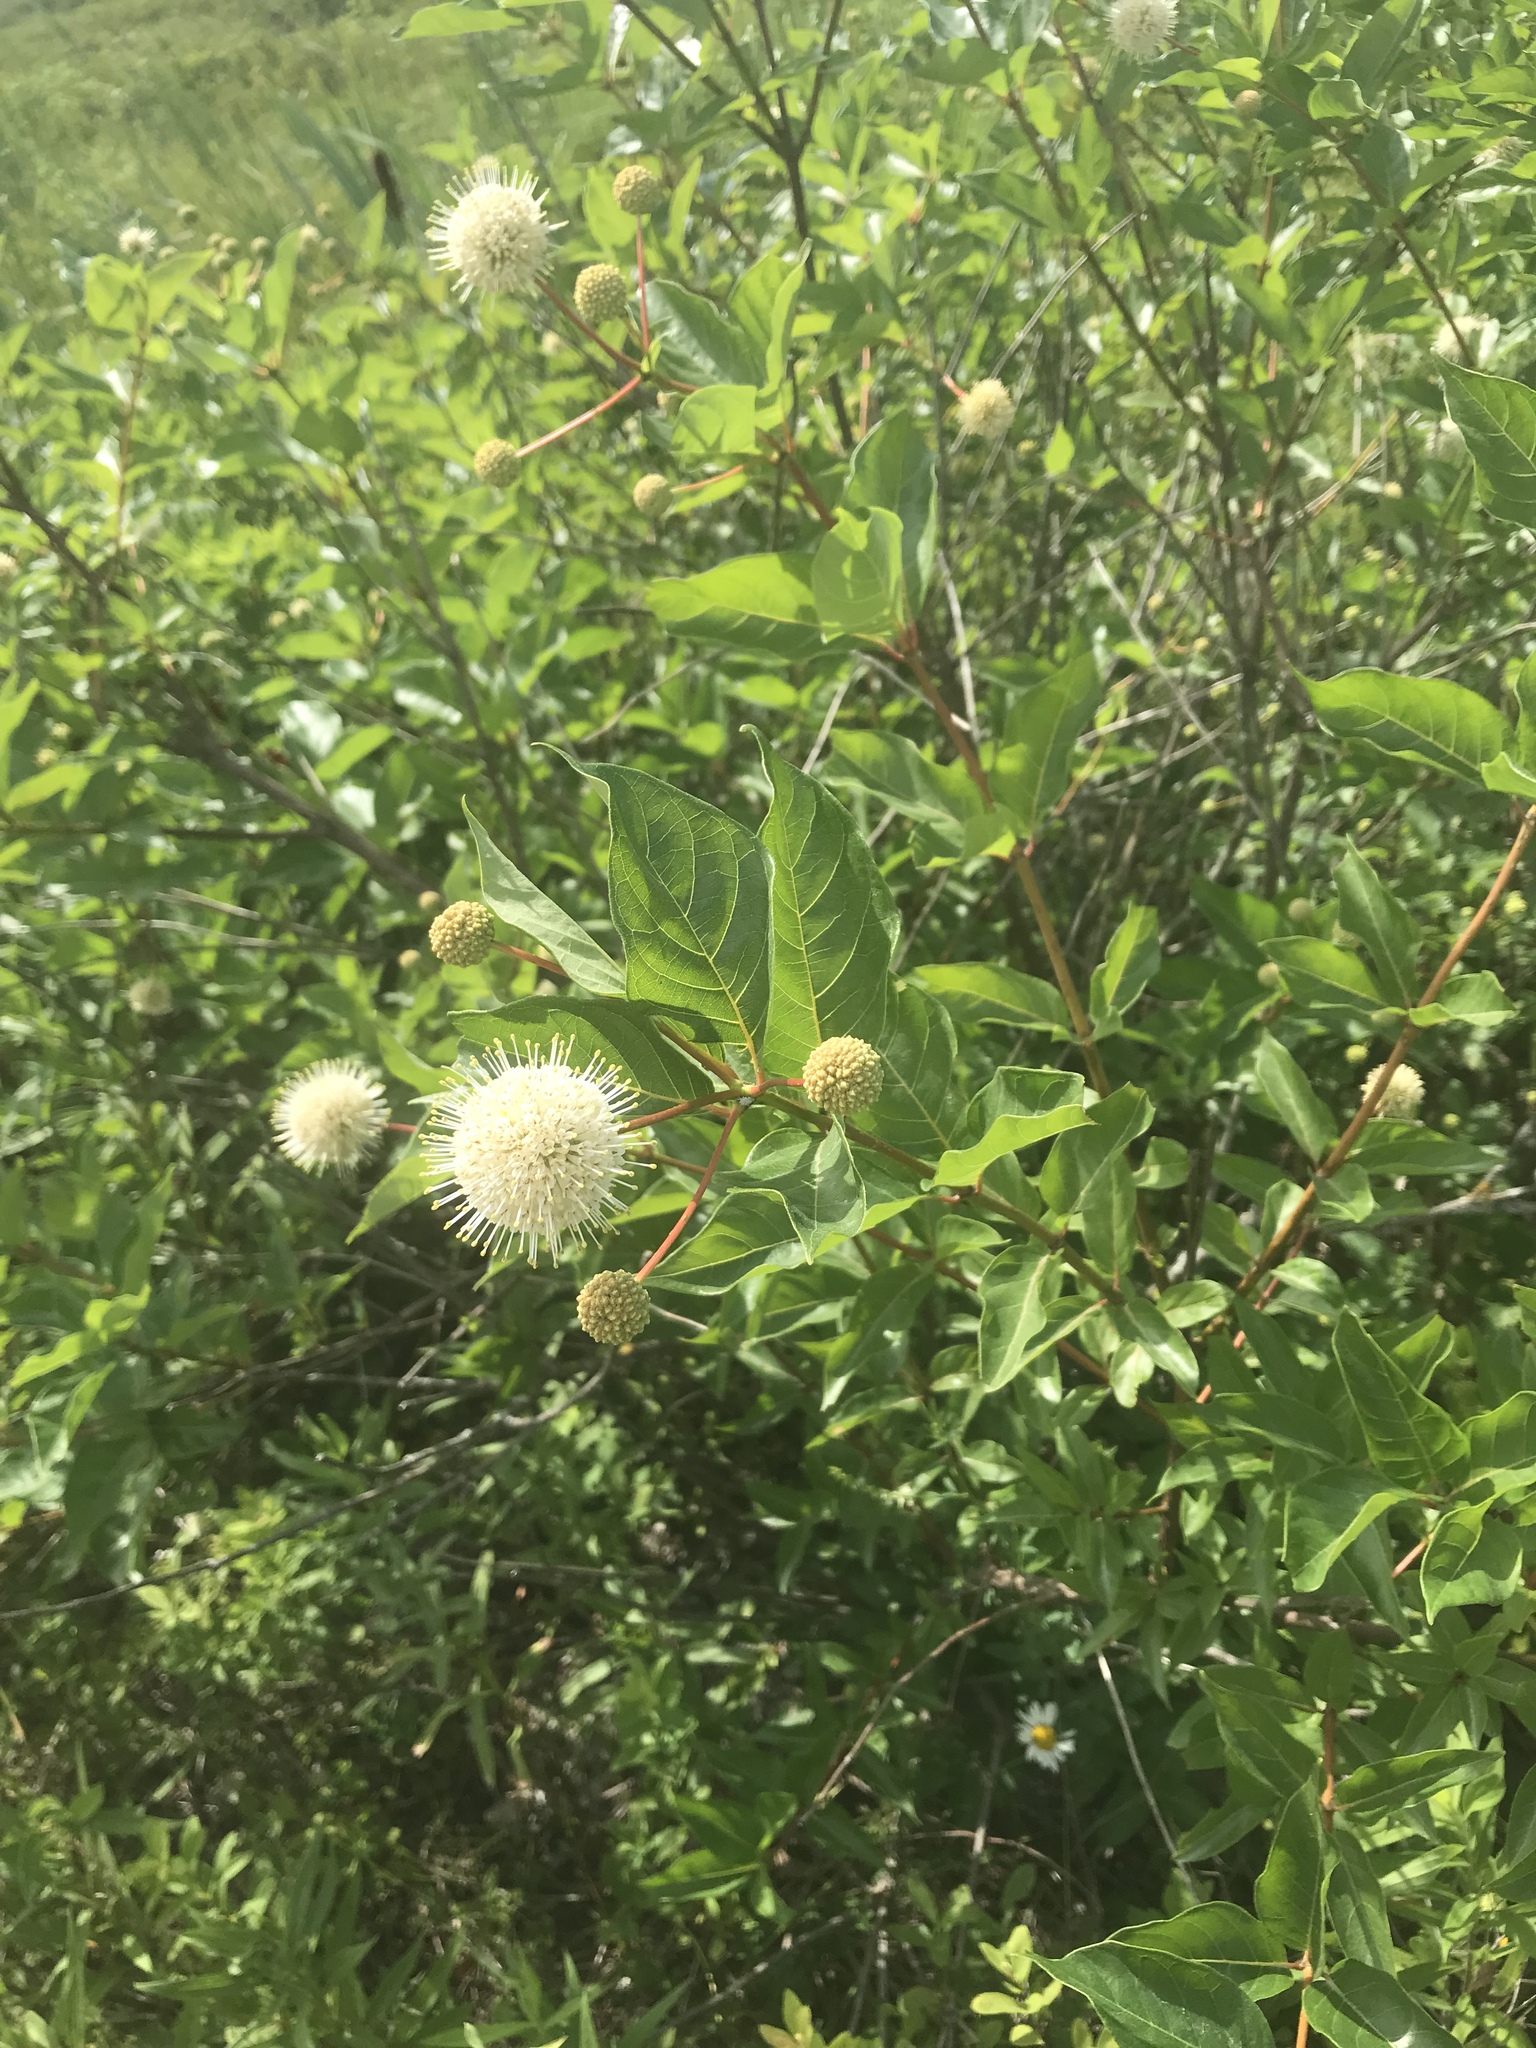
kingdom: Plantae
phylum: Tracheophyta
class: Magnoliopsida
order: Gentianales
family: Rubiaceae
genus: Cephalanthus
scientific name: Cephalanthus occidentalis
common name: Button-willow
